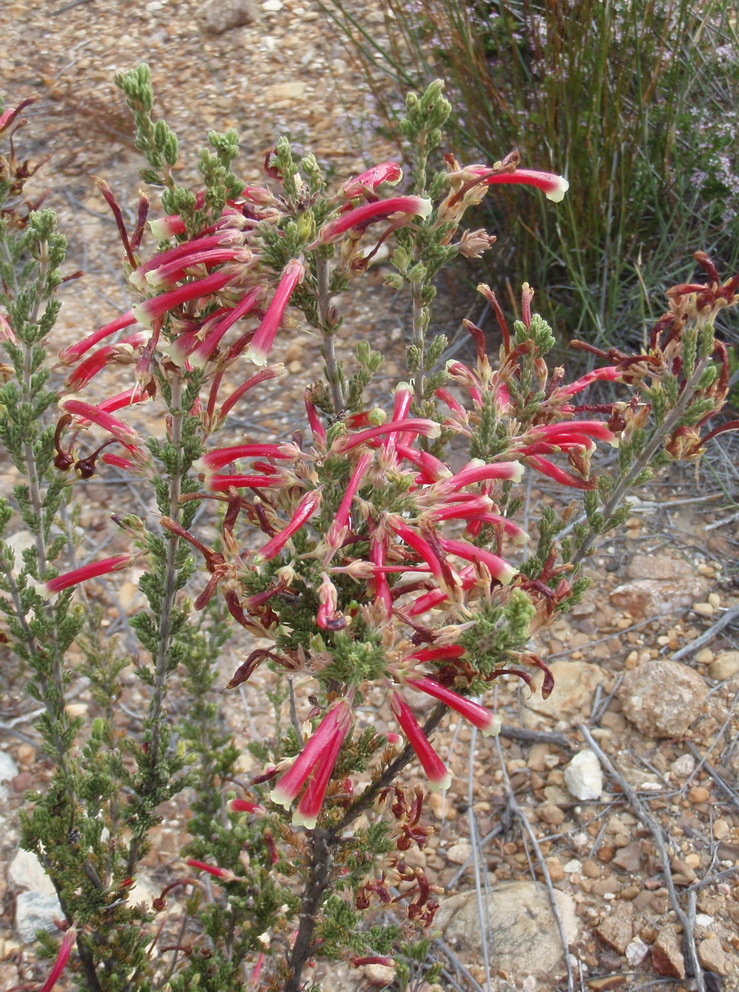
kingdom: Plantae
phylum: Tracheophyta
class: Magnoliopsida
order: Ericales
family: Ericaceae
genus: Erica
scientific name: Erica discolor
